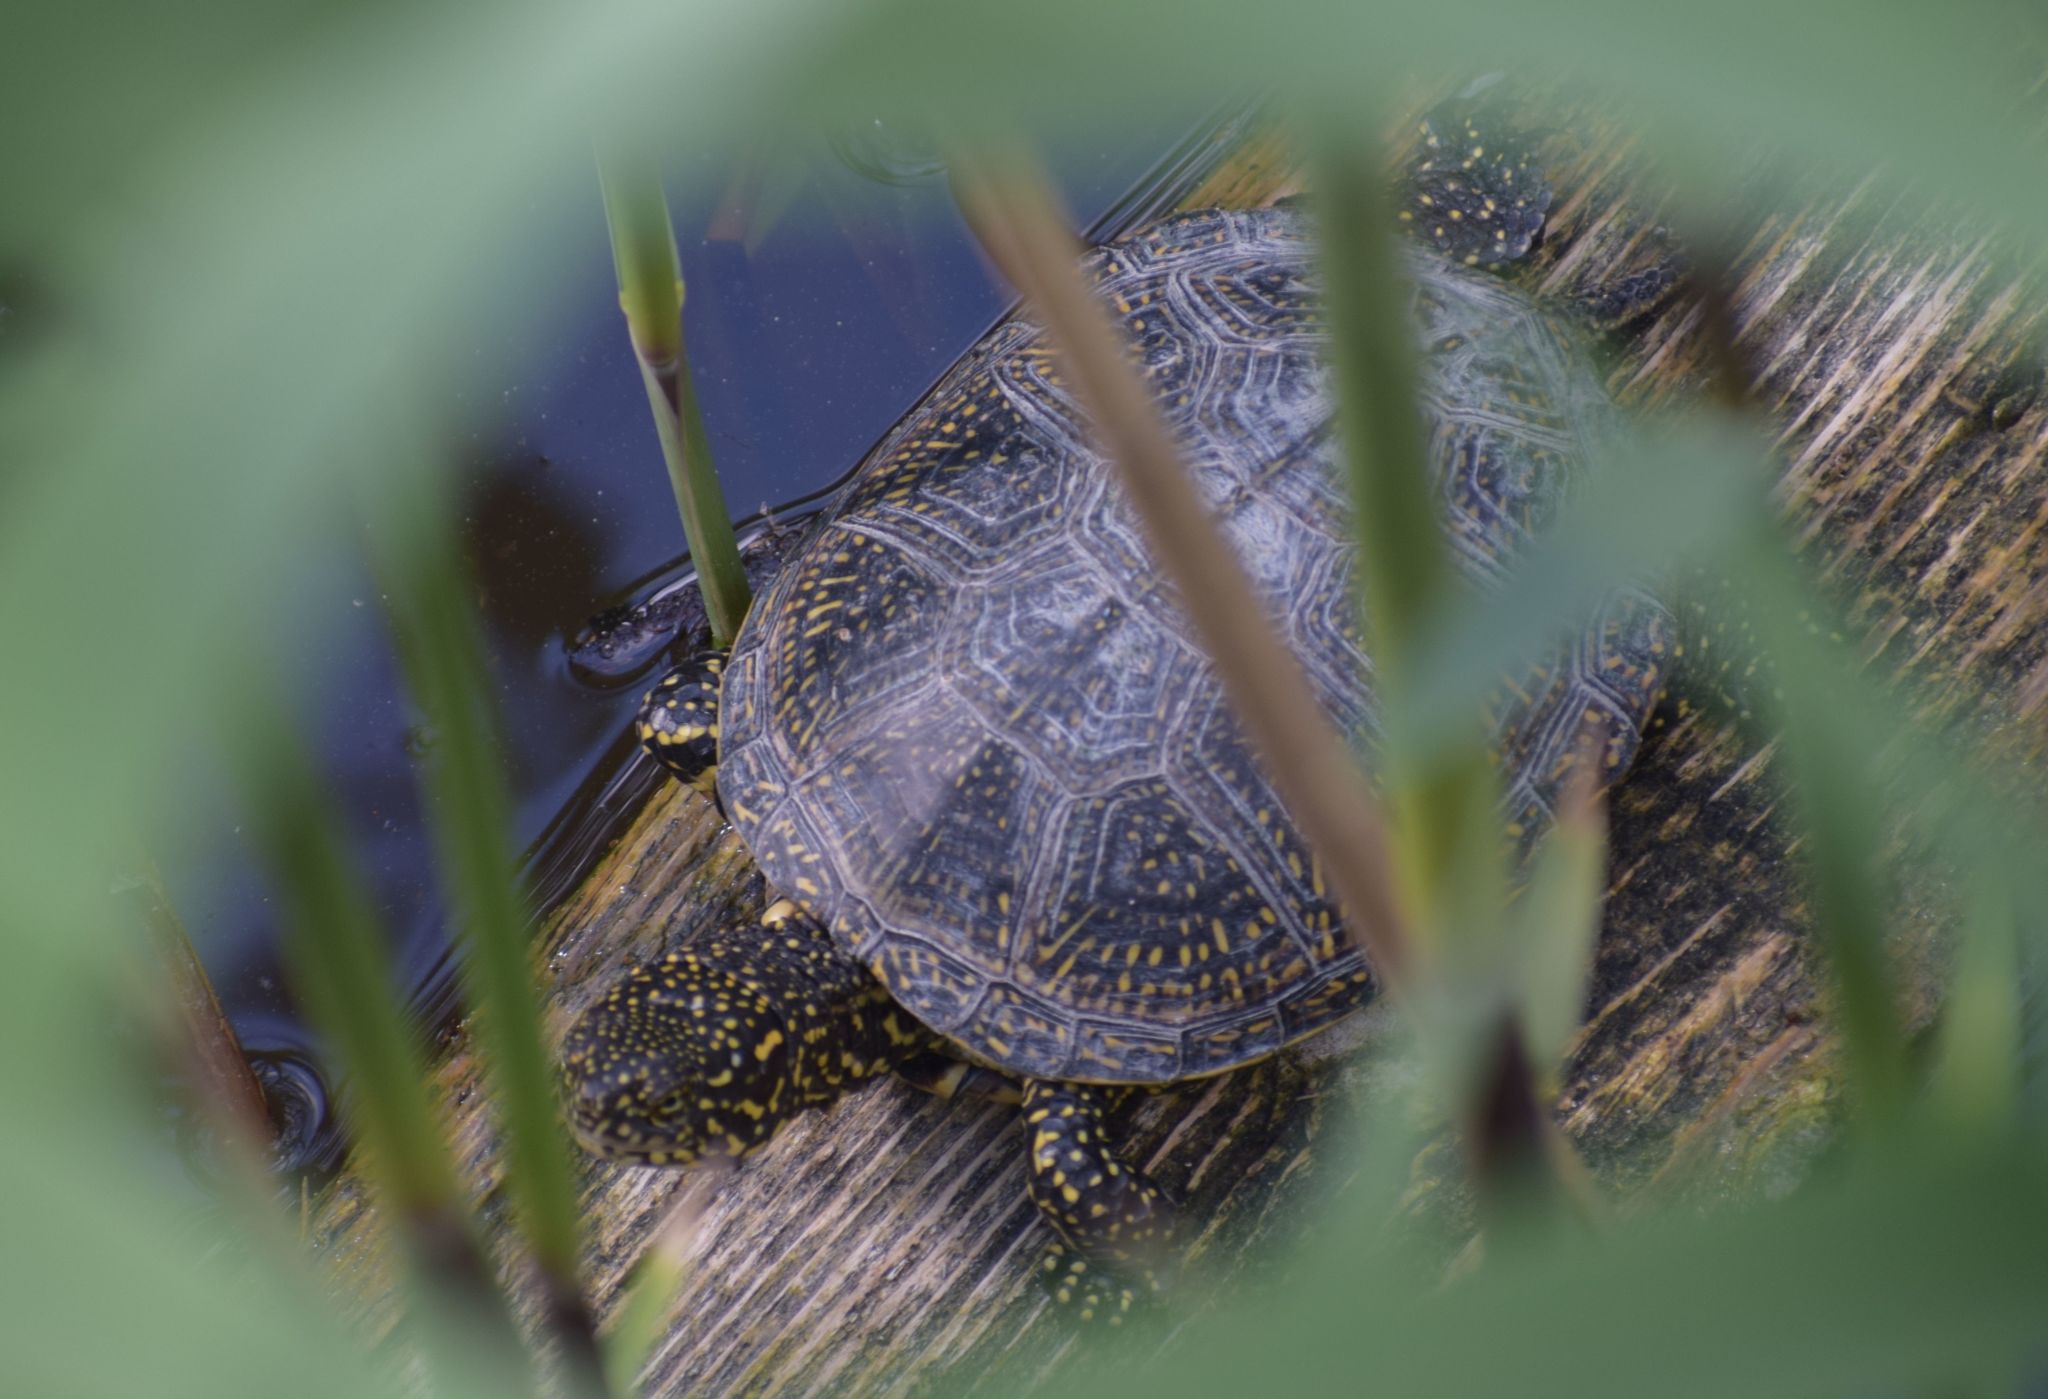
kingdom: Animalia
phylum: Chordata
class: Testudines
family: Emydidae
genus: Emys
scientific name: Emys orbicularis
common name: European pond turtle
